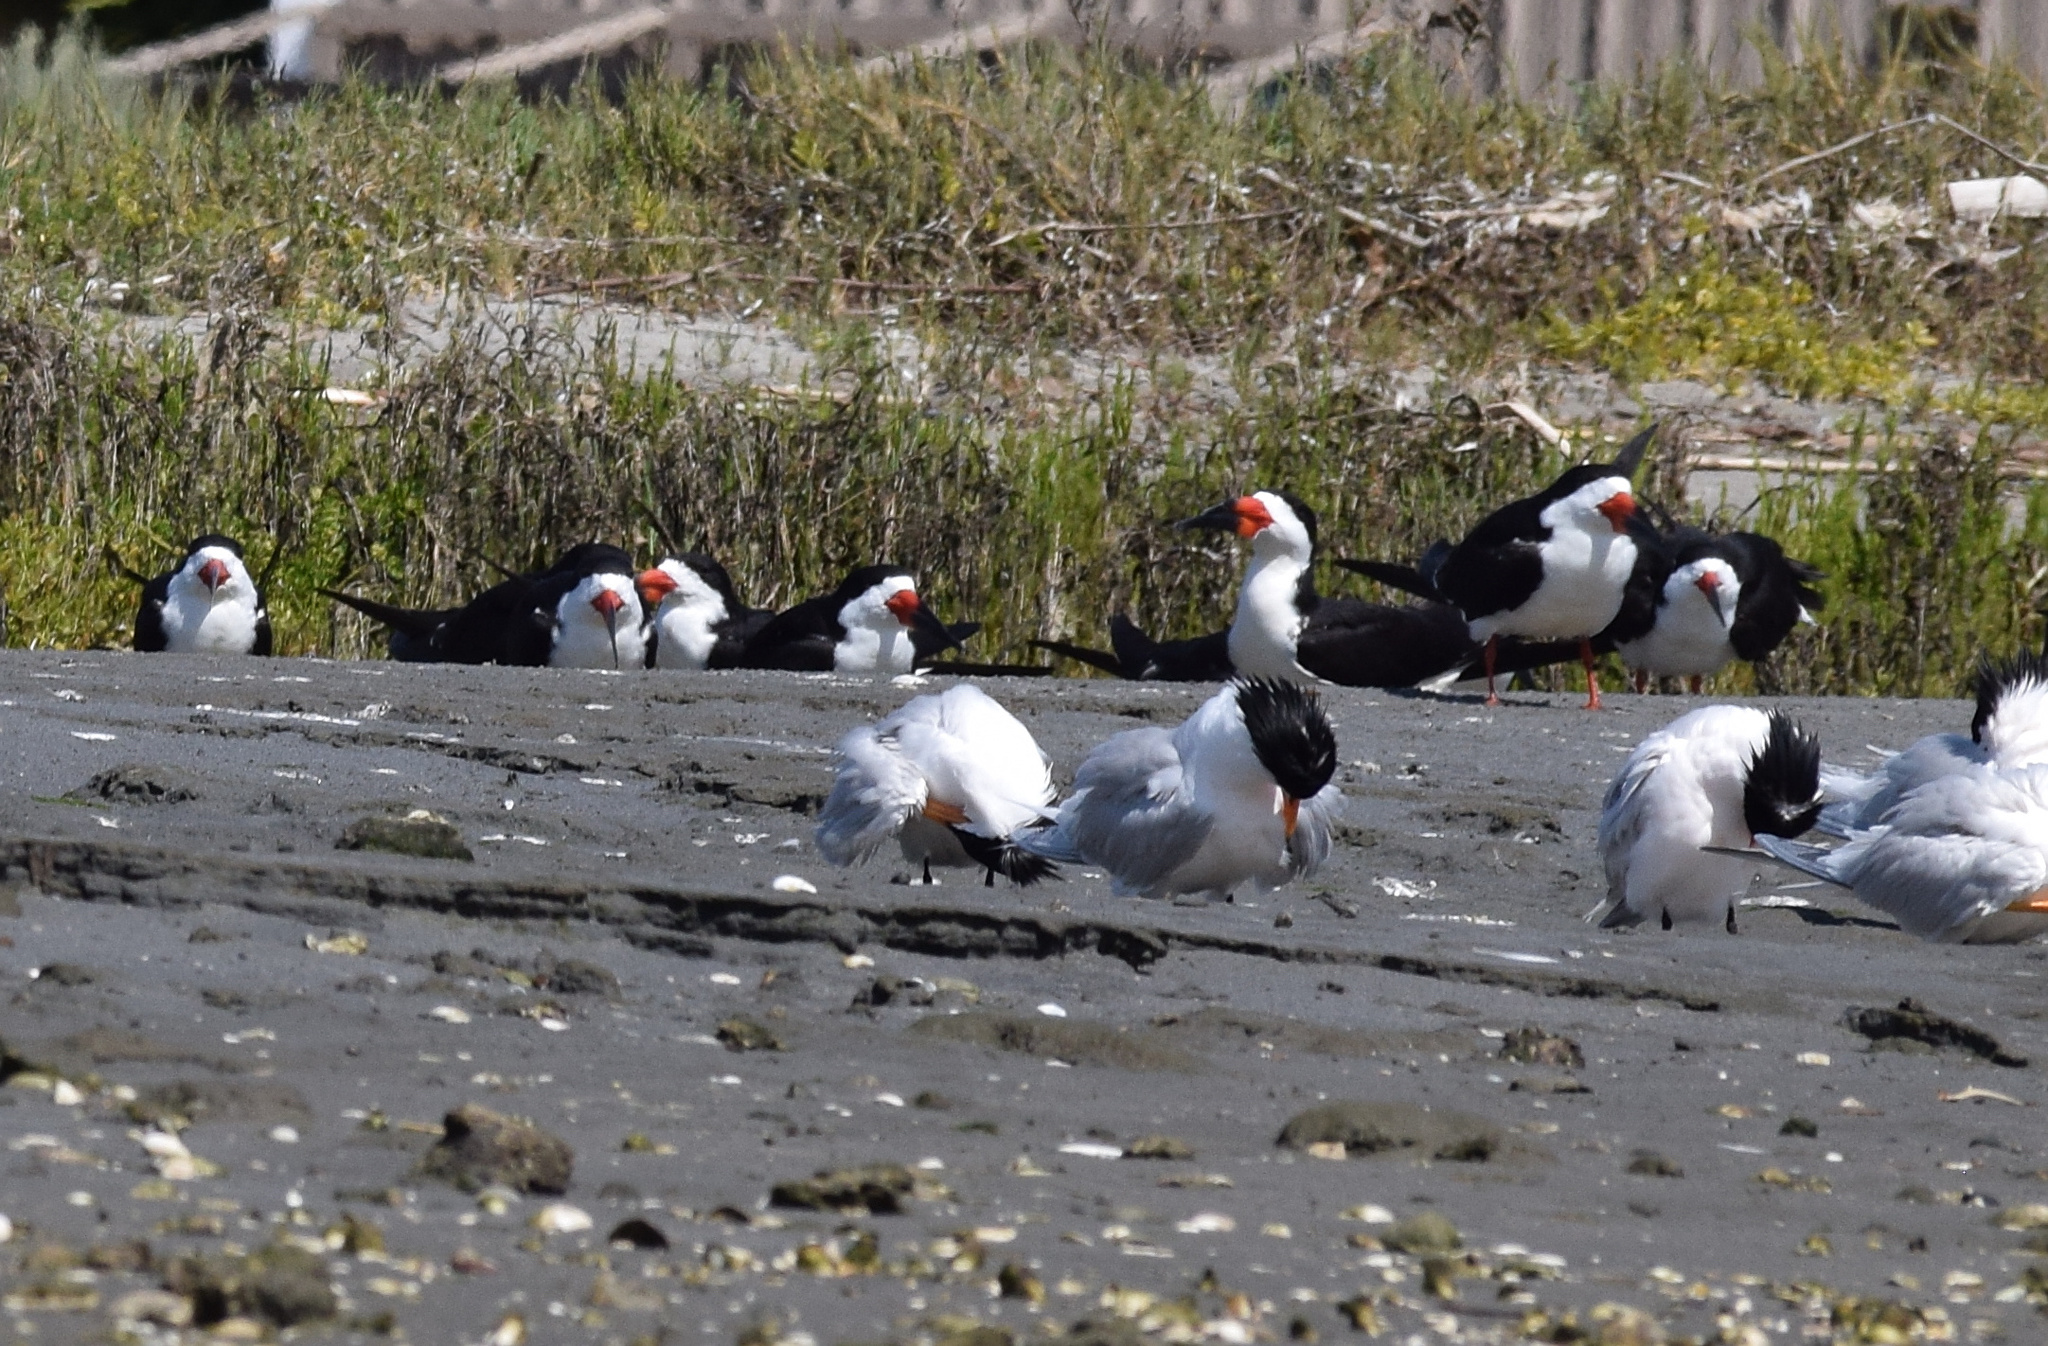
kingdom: Animalia
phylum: Chordata
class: Aves
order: Charadriiformes
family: Laridae
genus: Rynchops
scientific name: Rynchops niger
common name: Black skimmer
